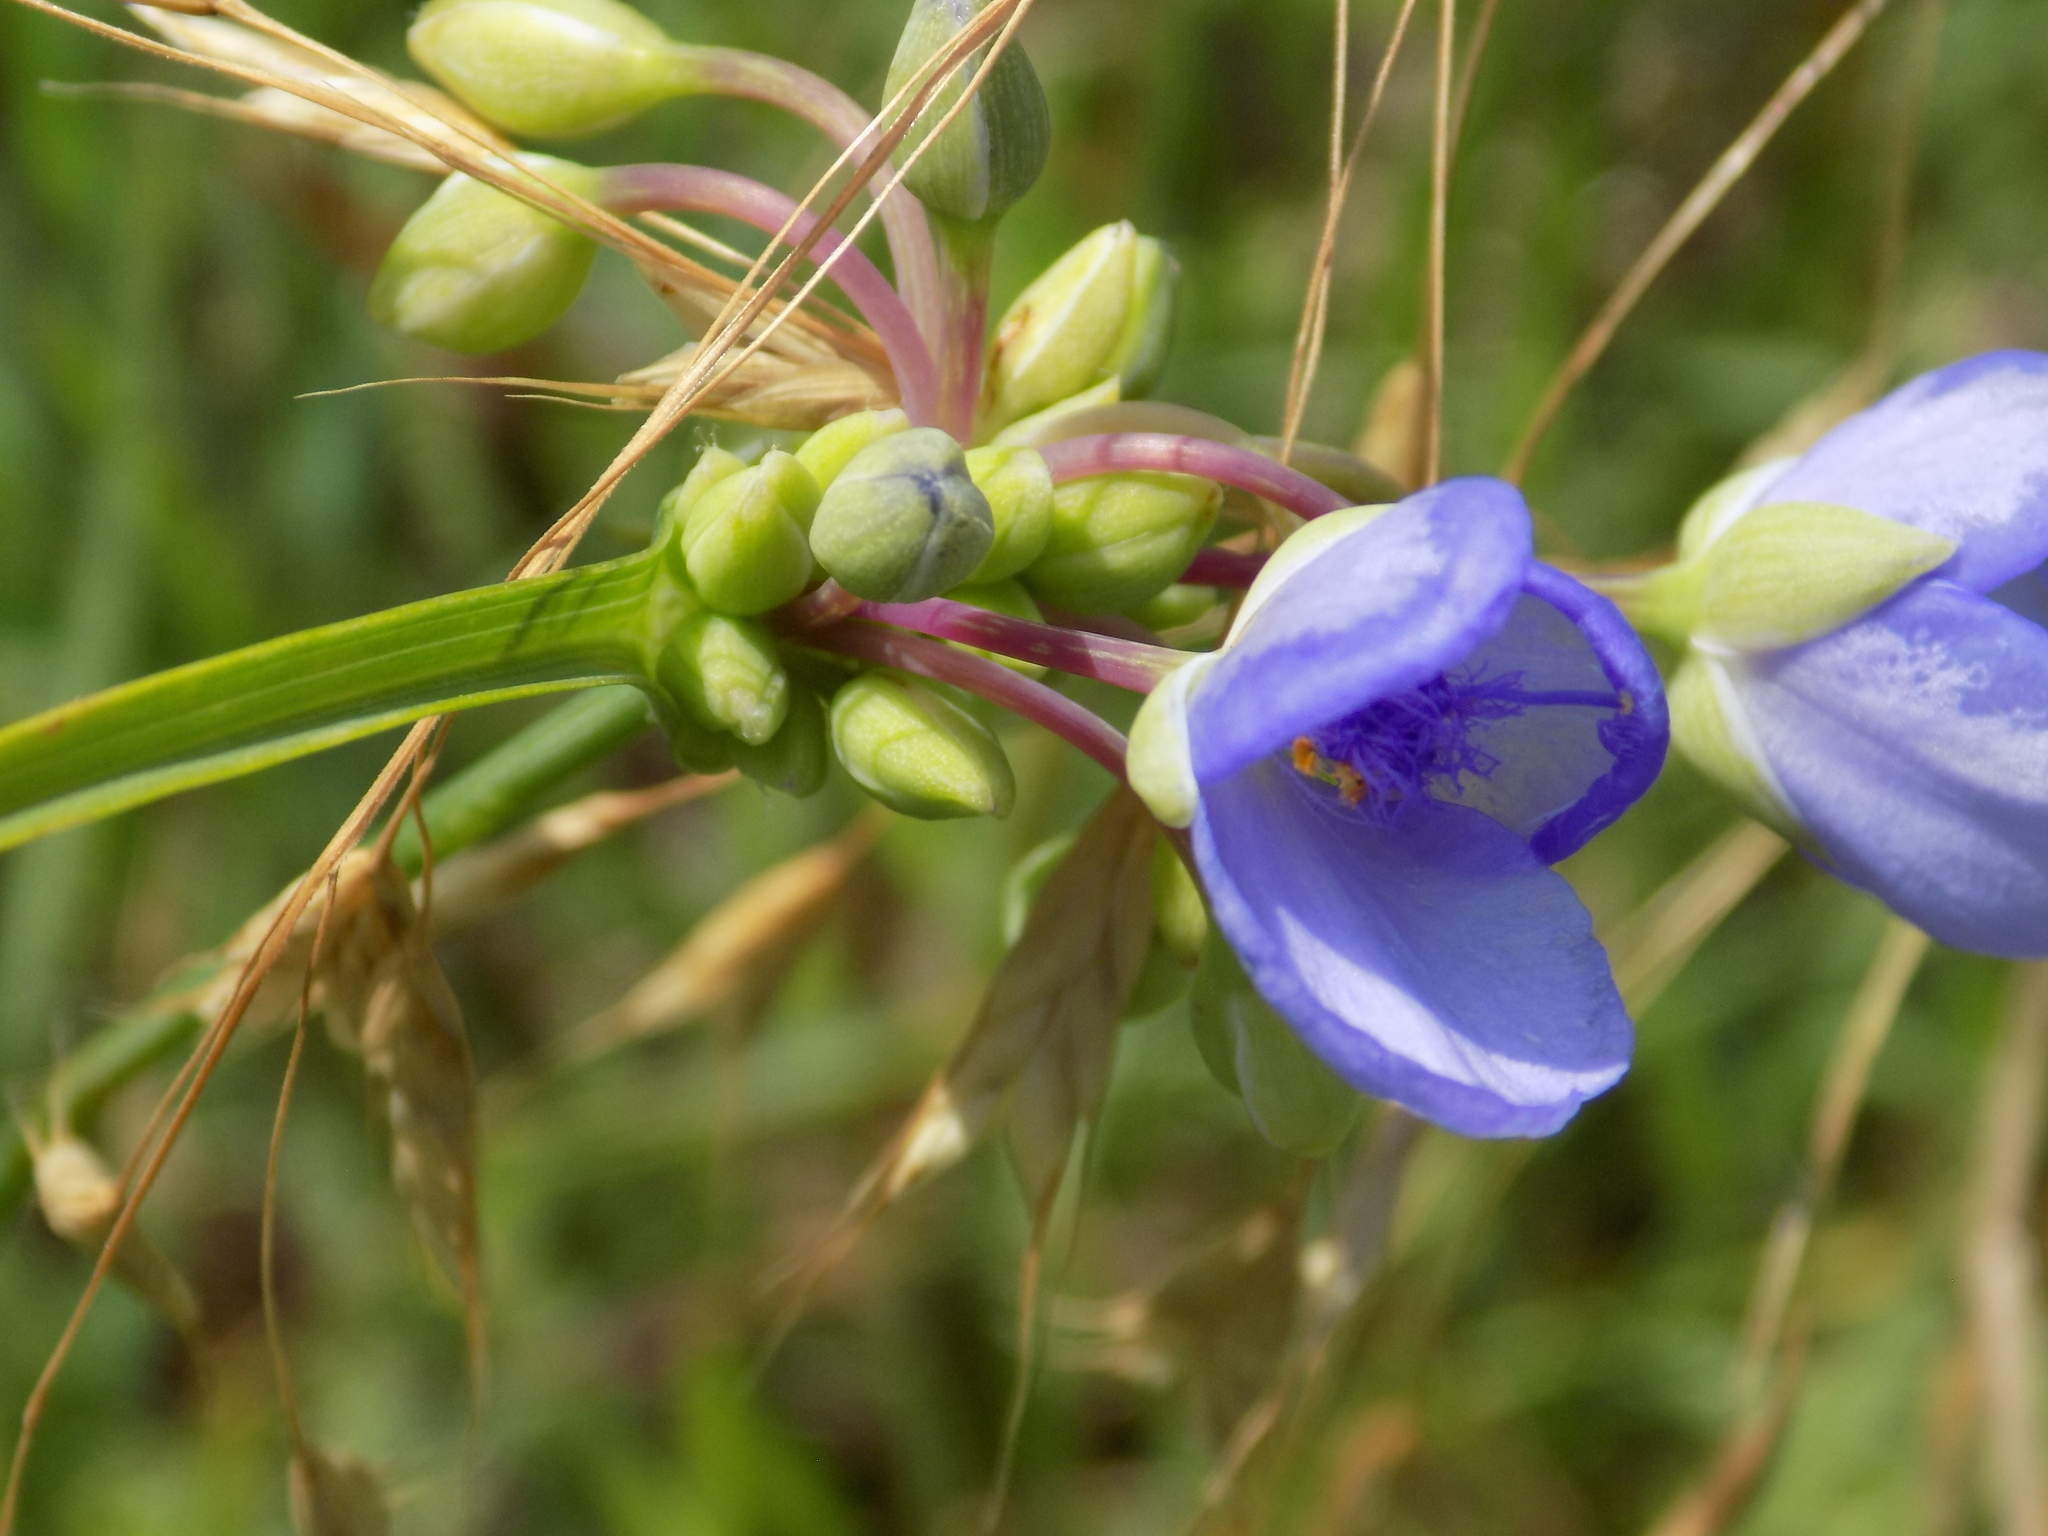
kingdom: Plantae
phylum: Tracheophyta
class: Liliopsida
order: Commelinales
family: Commelinaceae
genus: Tradescantia
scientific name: Tradescantia ohiensis
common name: Ohio spiderwort
